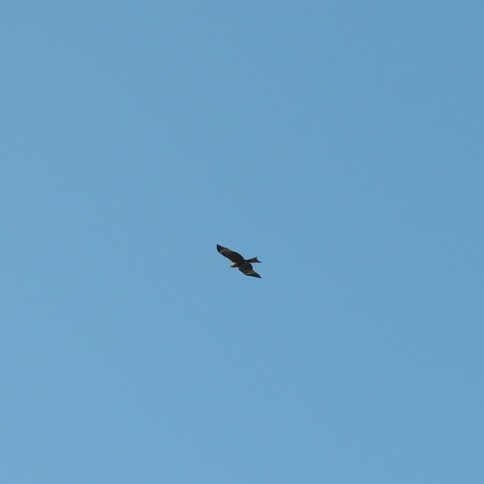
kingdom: Animalia
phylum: Chordata
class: Aves
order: Accipitriformes
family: Accipitridae
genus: Milvus
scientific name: Milvus migrans
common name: Black kite
